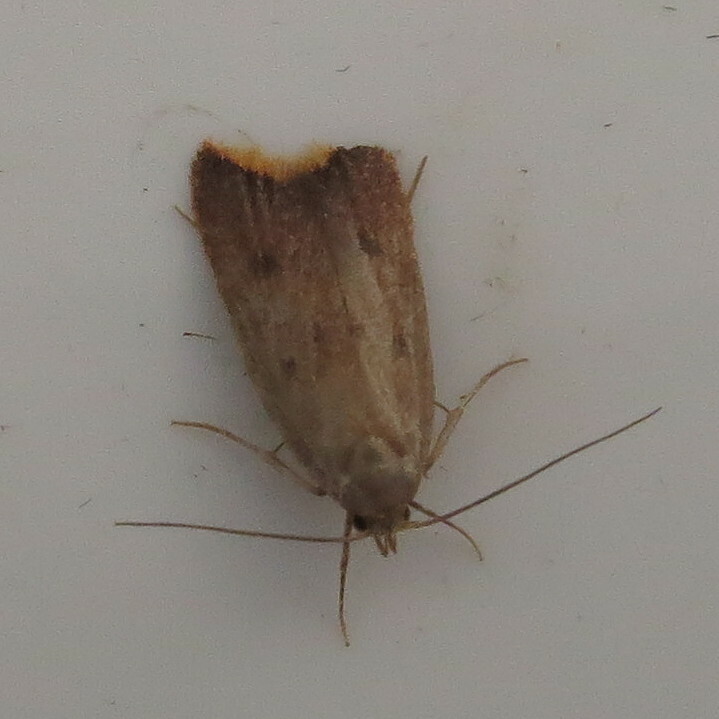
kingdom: Animalia
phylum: Arthropoda
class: Insecta
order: Lepidoptera
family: Oecophoridae
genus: Tachystola
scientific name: Tachystola acroxantha
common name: Ruddy streak
